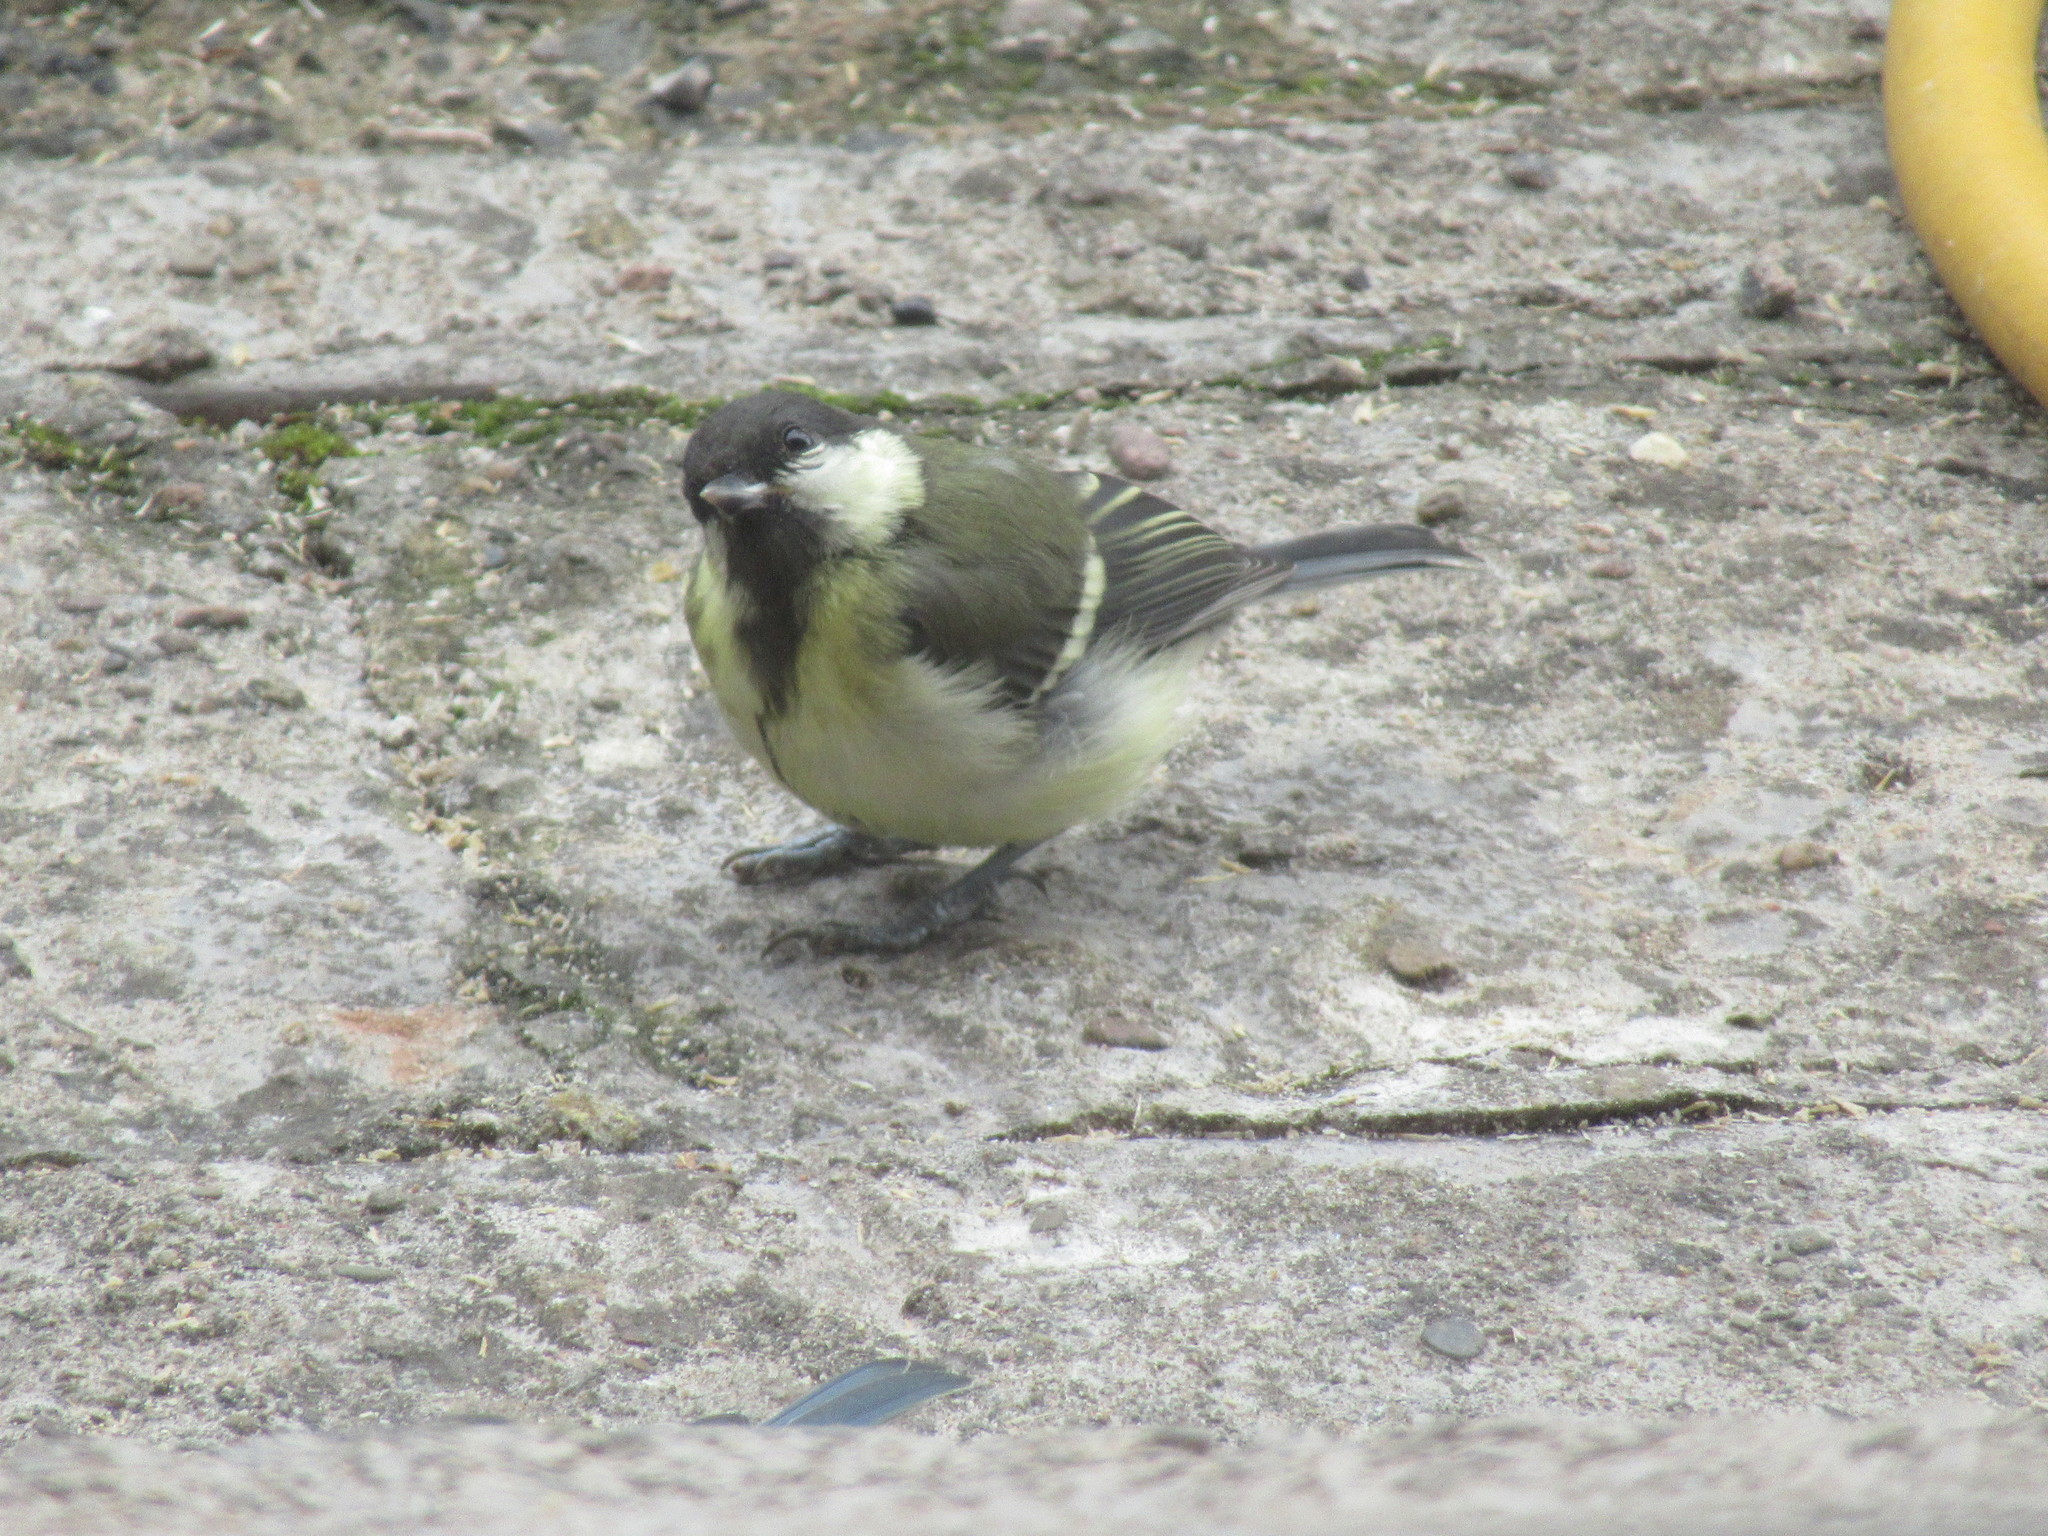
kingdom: Animalia
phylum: Chordata
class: Aves
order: Passeriformes
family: Paridae
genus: Parus
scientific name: Parus major
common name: Great tit
